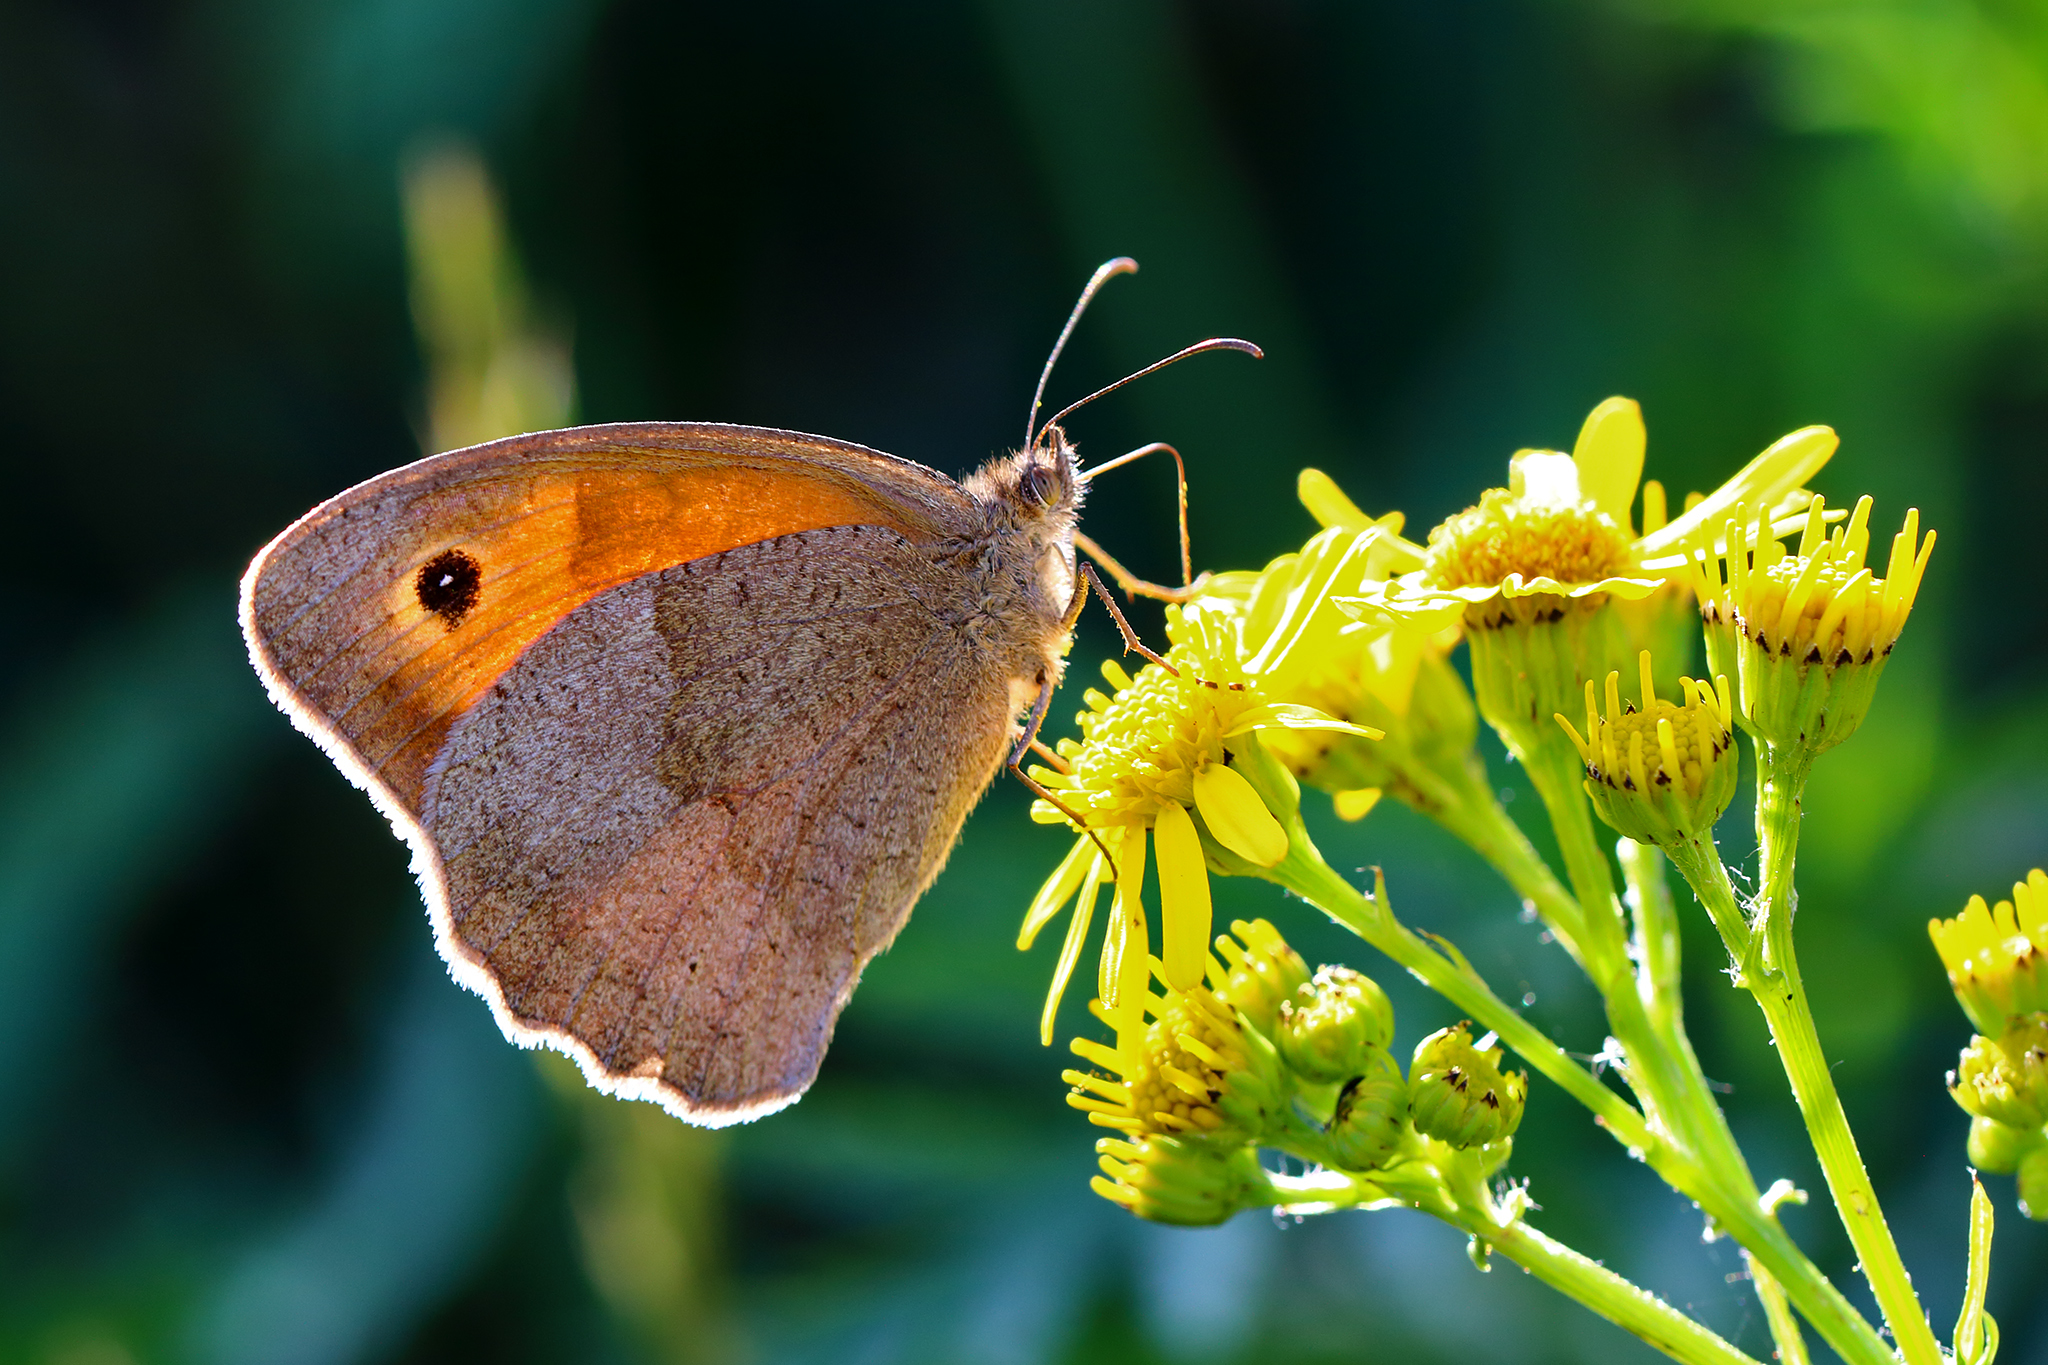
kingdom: Animalia
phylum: Arthropoda
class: Insecta
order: Lepidoptera
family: Nymphalidae
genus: Maniola
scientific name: Maniola jurtina
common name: Meadow brown
